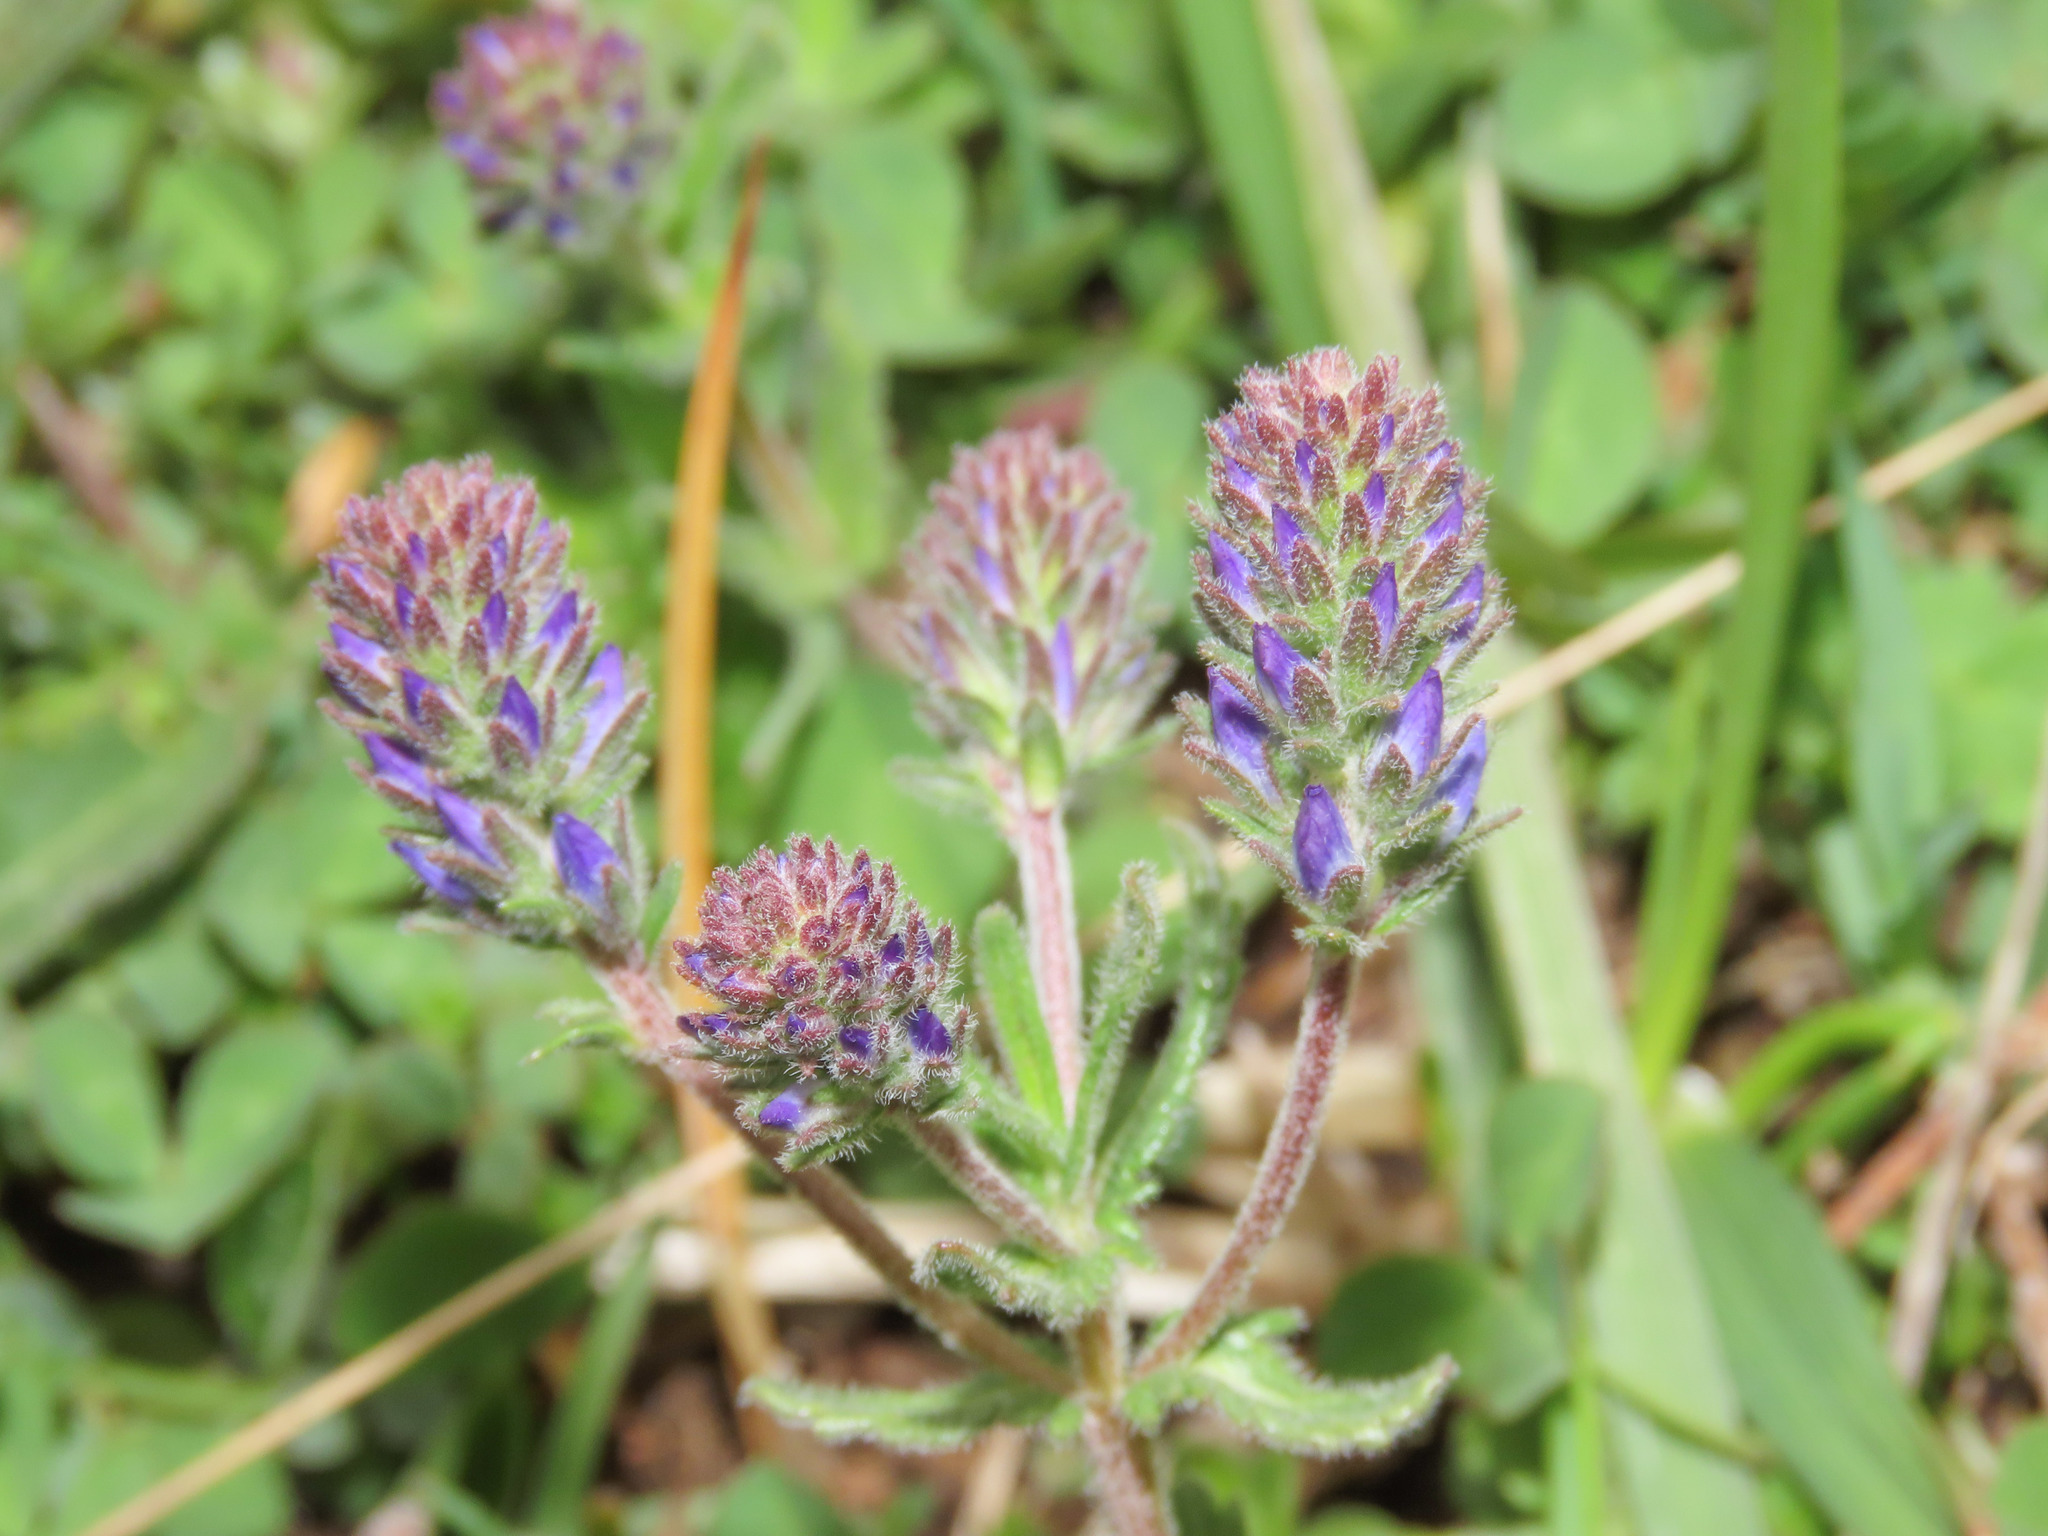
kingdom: Plantae
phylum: Tracheophyta
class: Magnoliopsida
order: Lamiales
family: Plantaginaceae
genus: Veronica
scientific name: Veronica orsiniana
